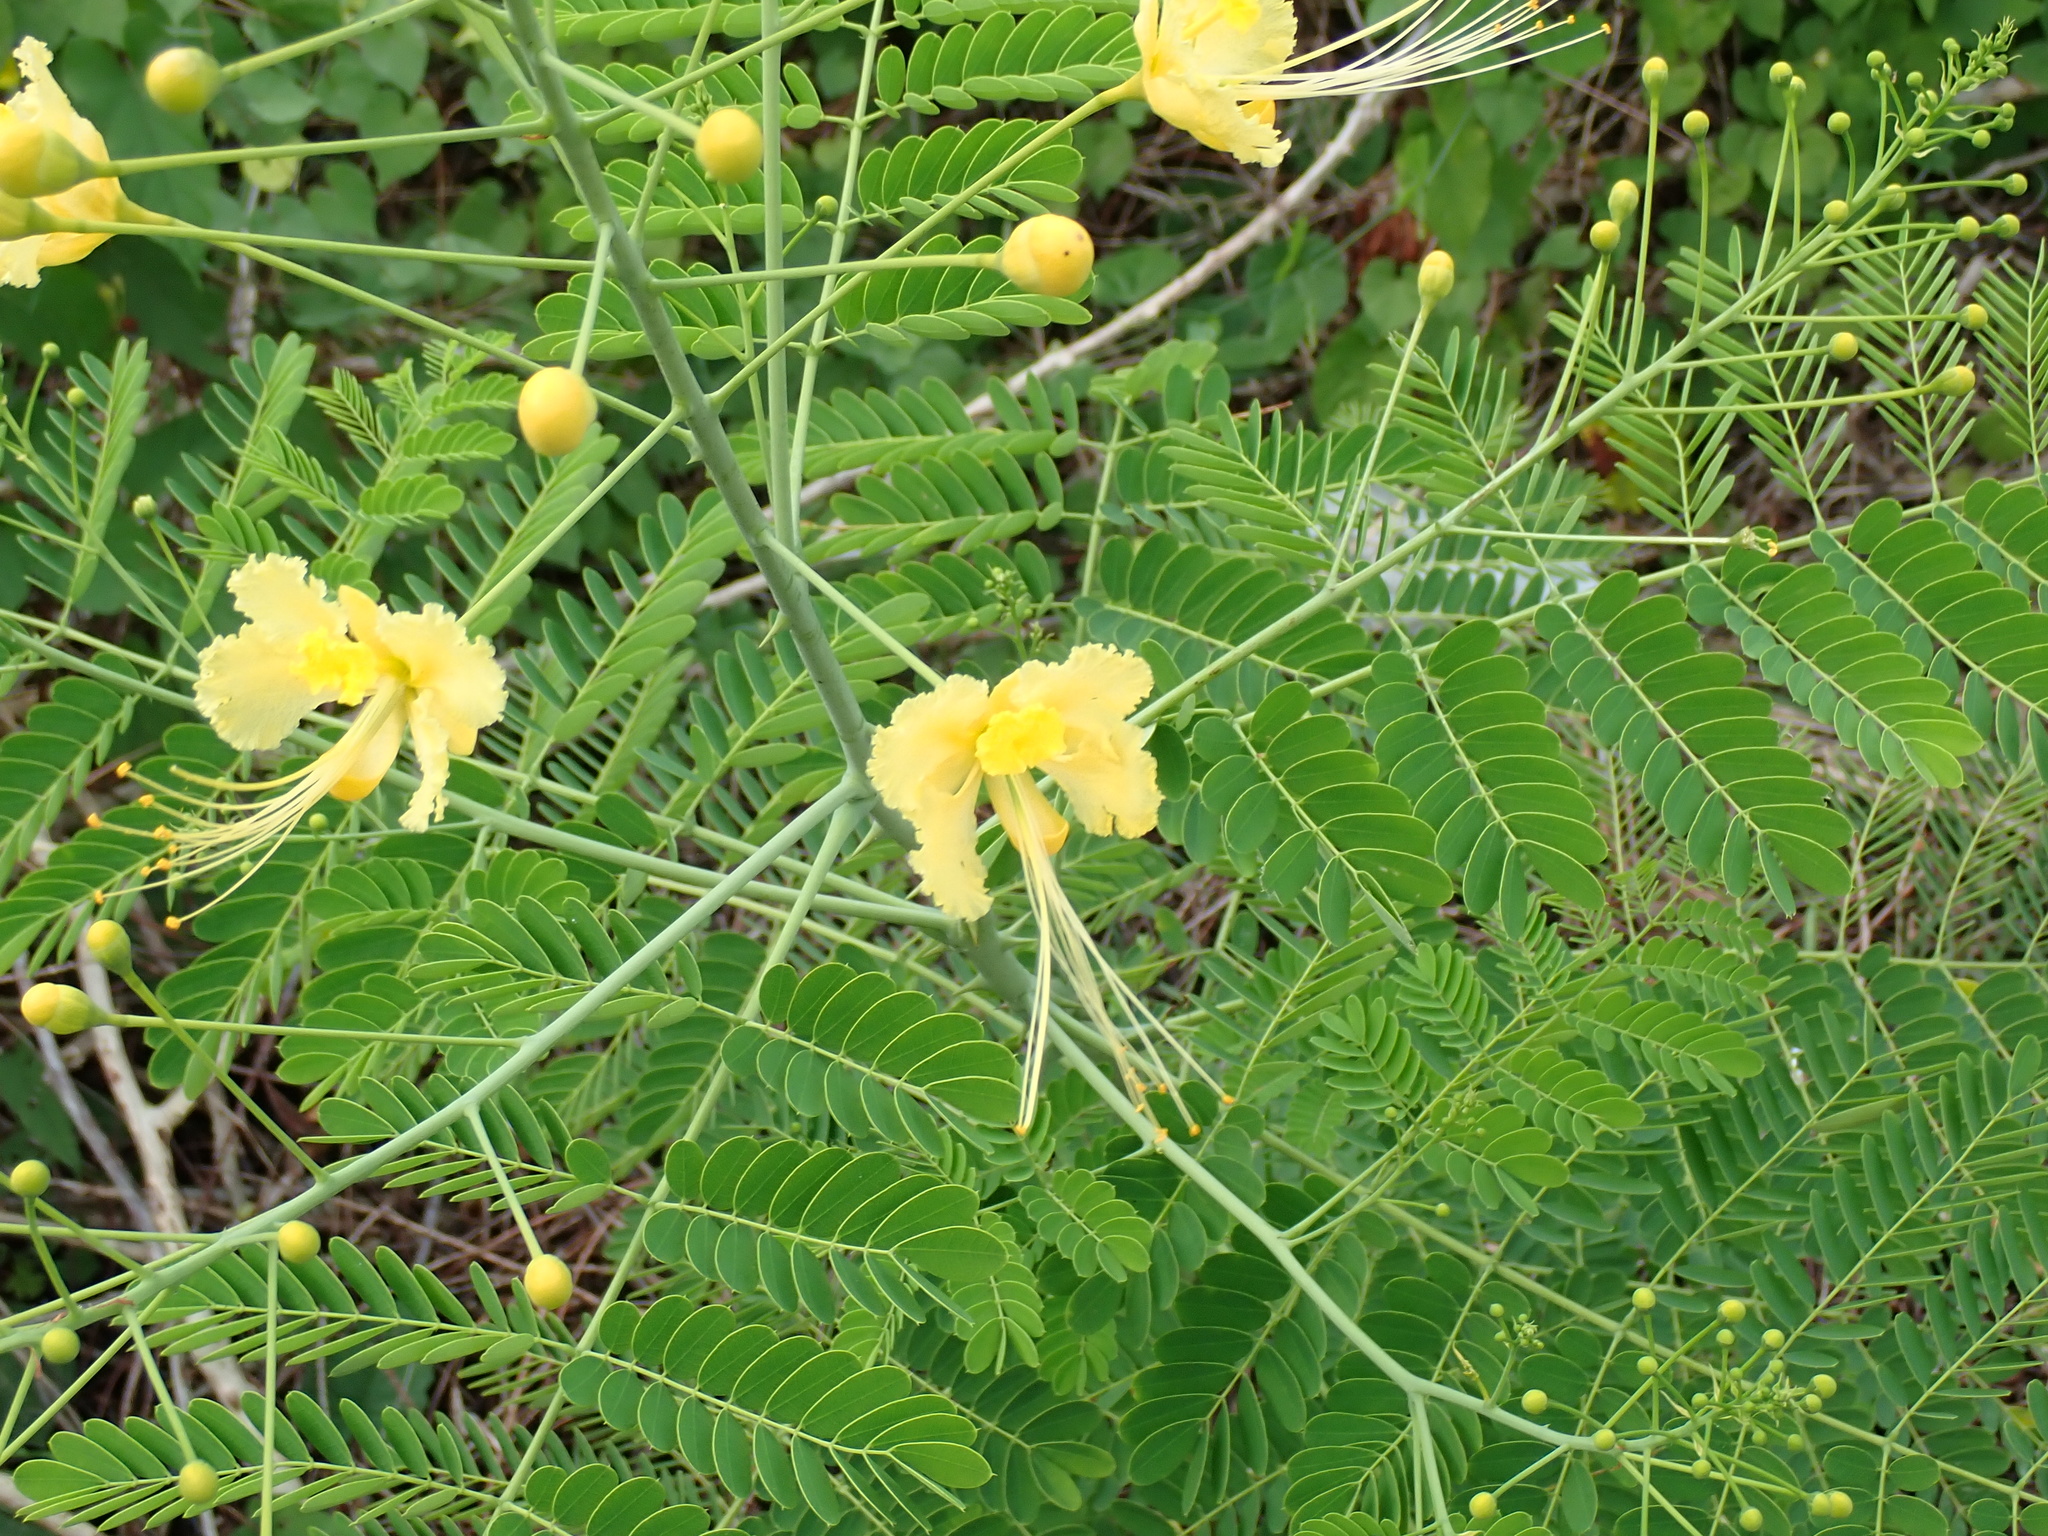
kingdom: Plantae
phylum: Tracheophyta
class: Magnoliopsida
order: Fabales
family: Fabaceae
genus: Caesalpinia
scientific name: Caesalpinia pulcherrima
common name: Pride-of-barbados
